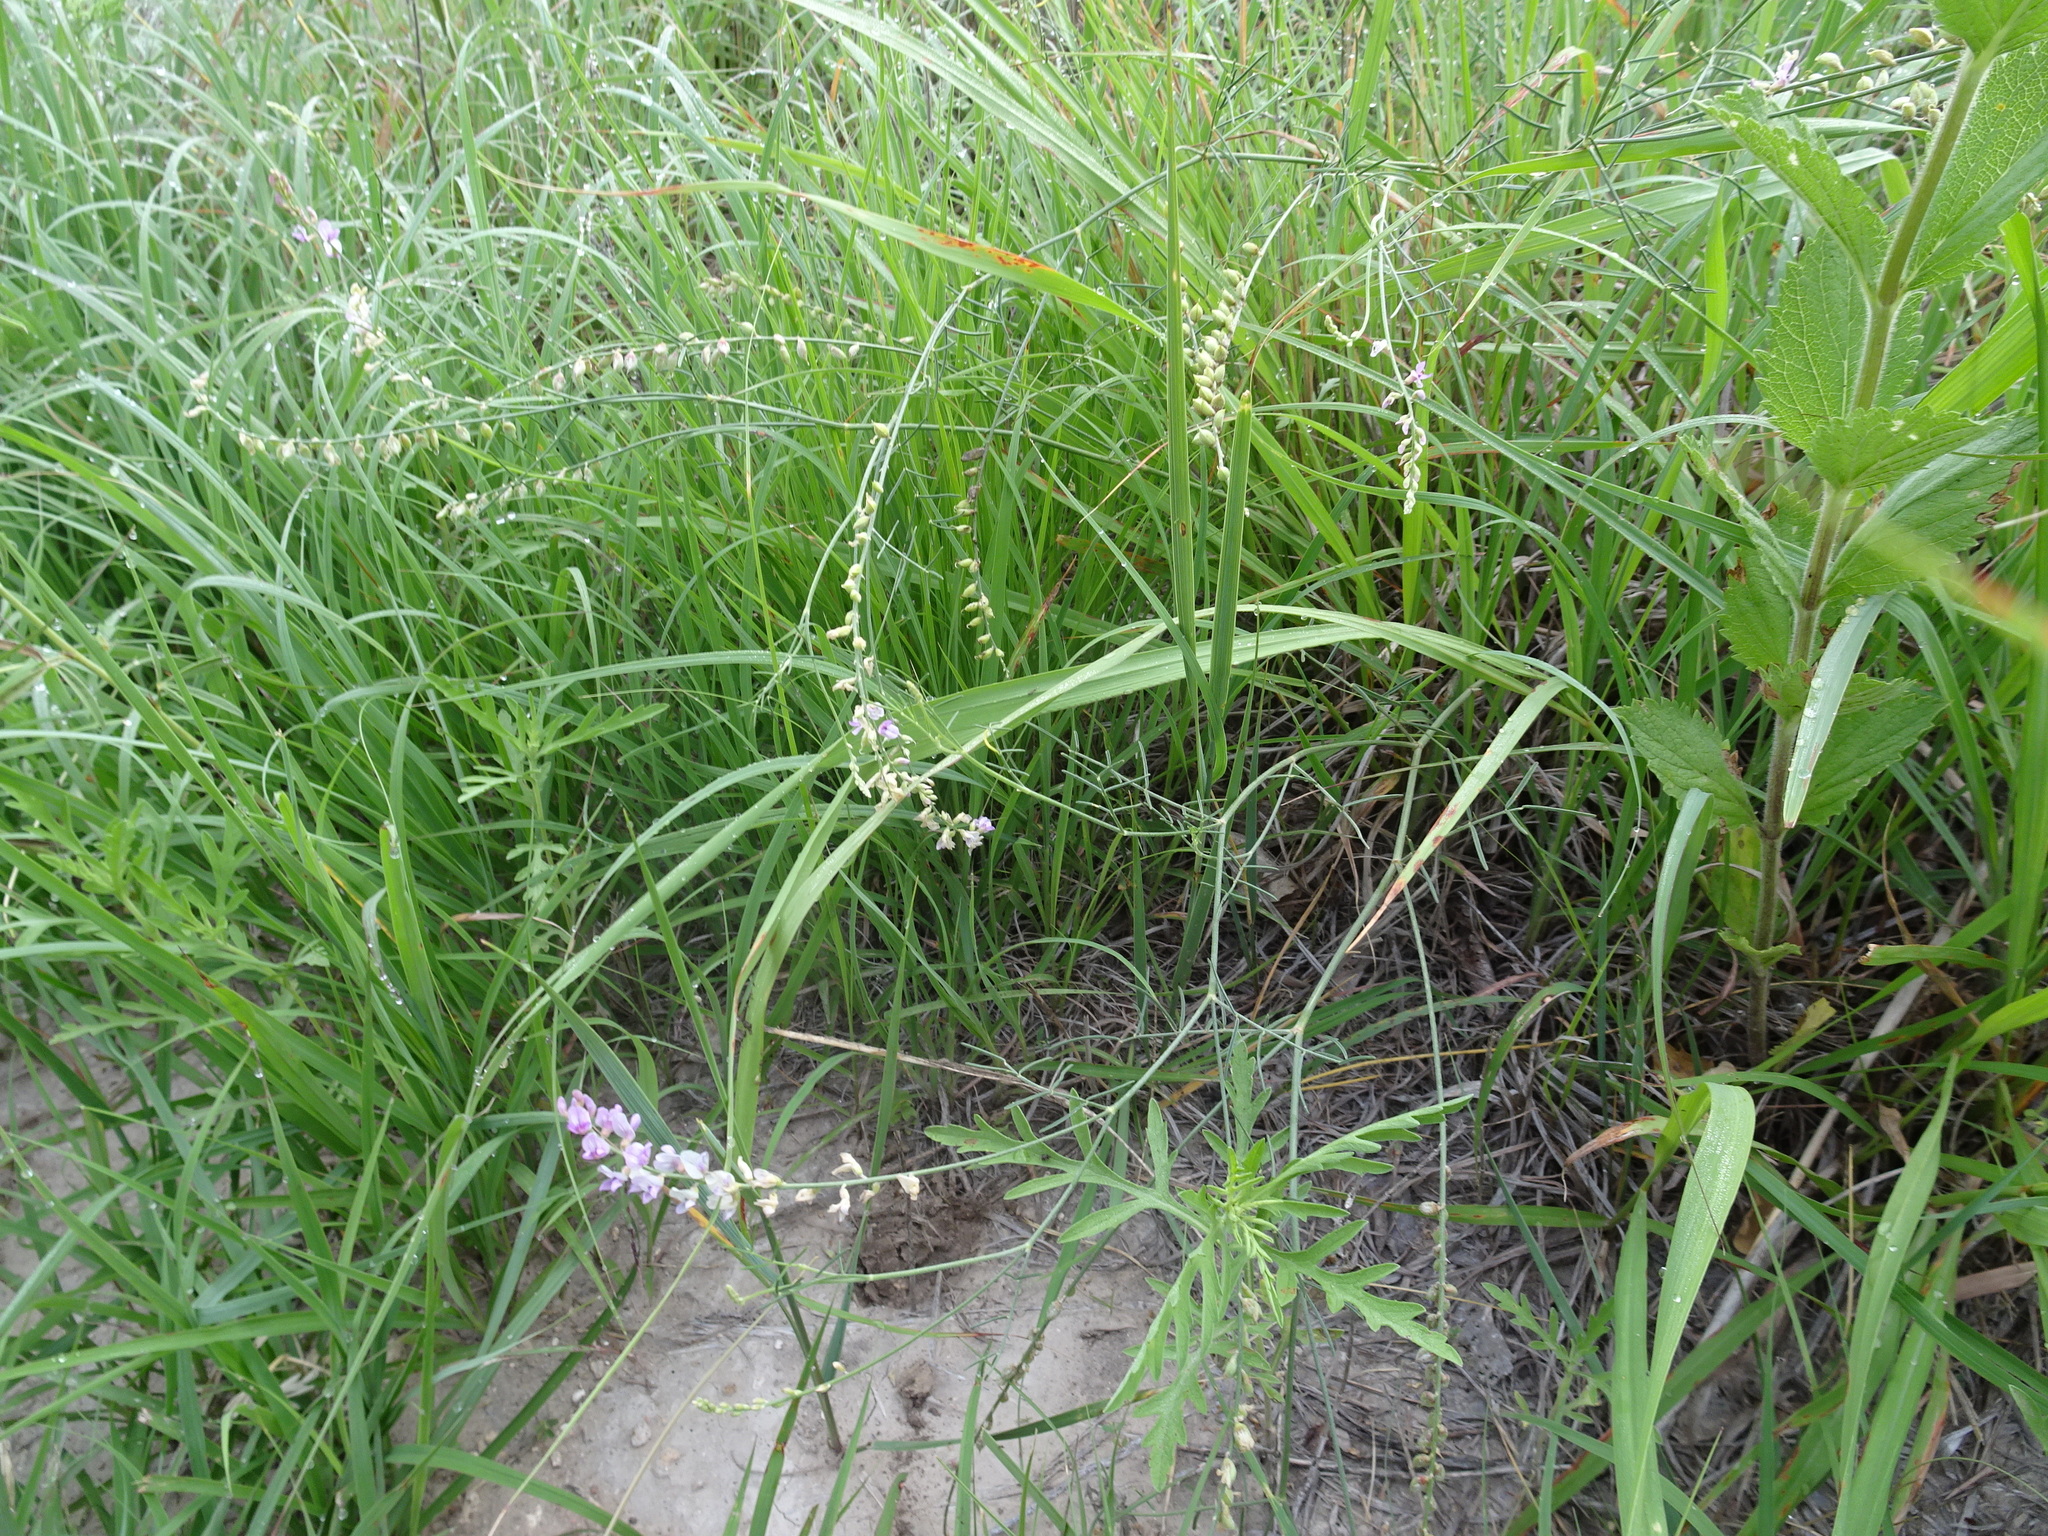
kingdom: Plantae
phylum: Tracheophyta
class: Magnoliopsida
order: Fabales
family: Fabaceae
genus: Astragalus
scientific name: Astragalus gracilis
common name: Slender milk-vetch
